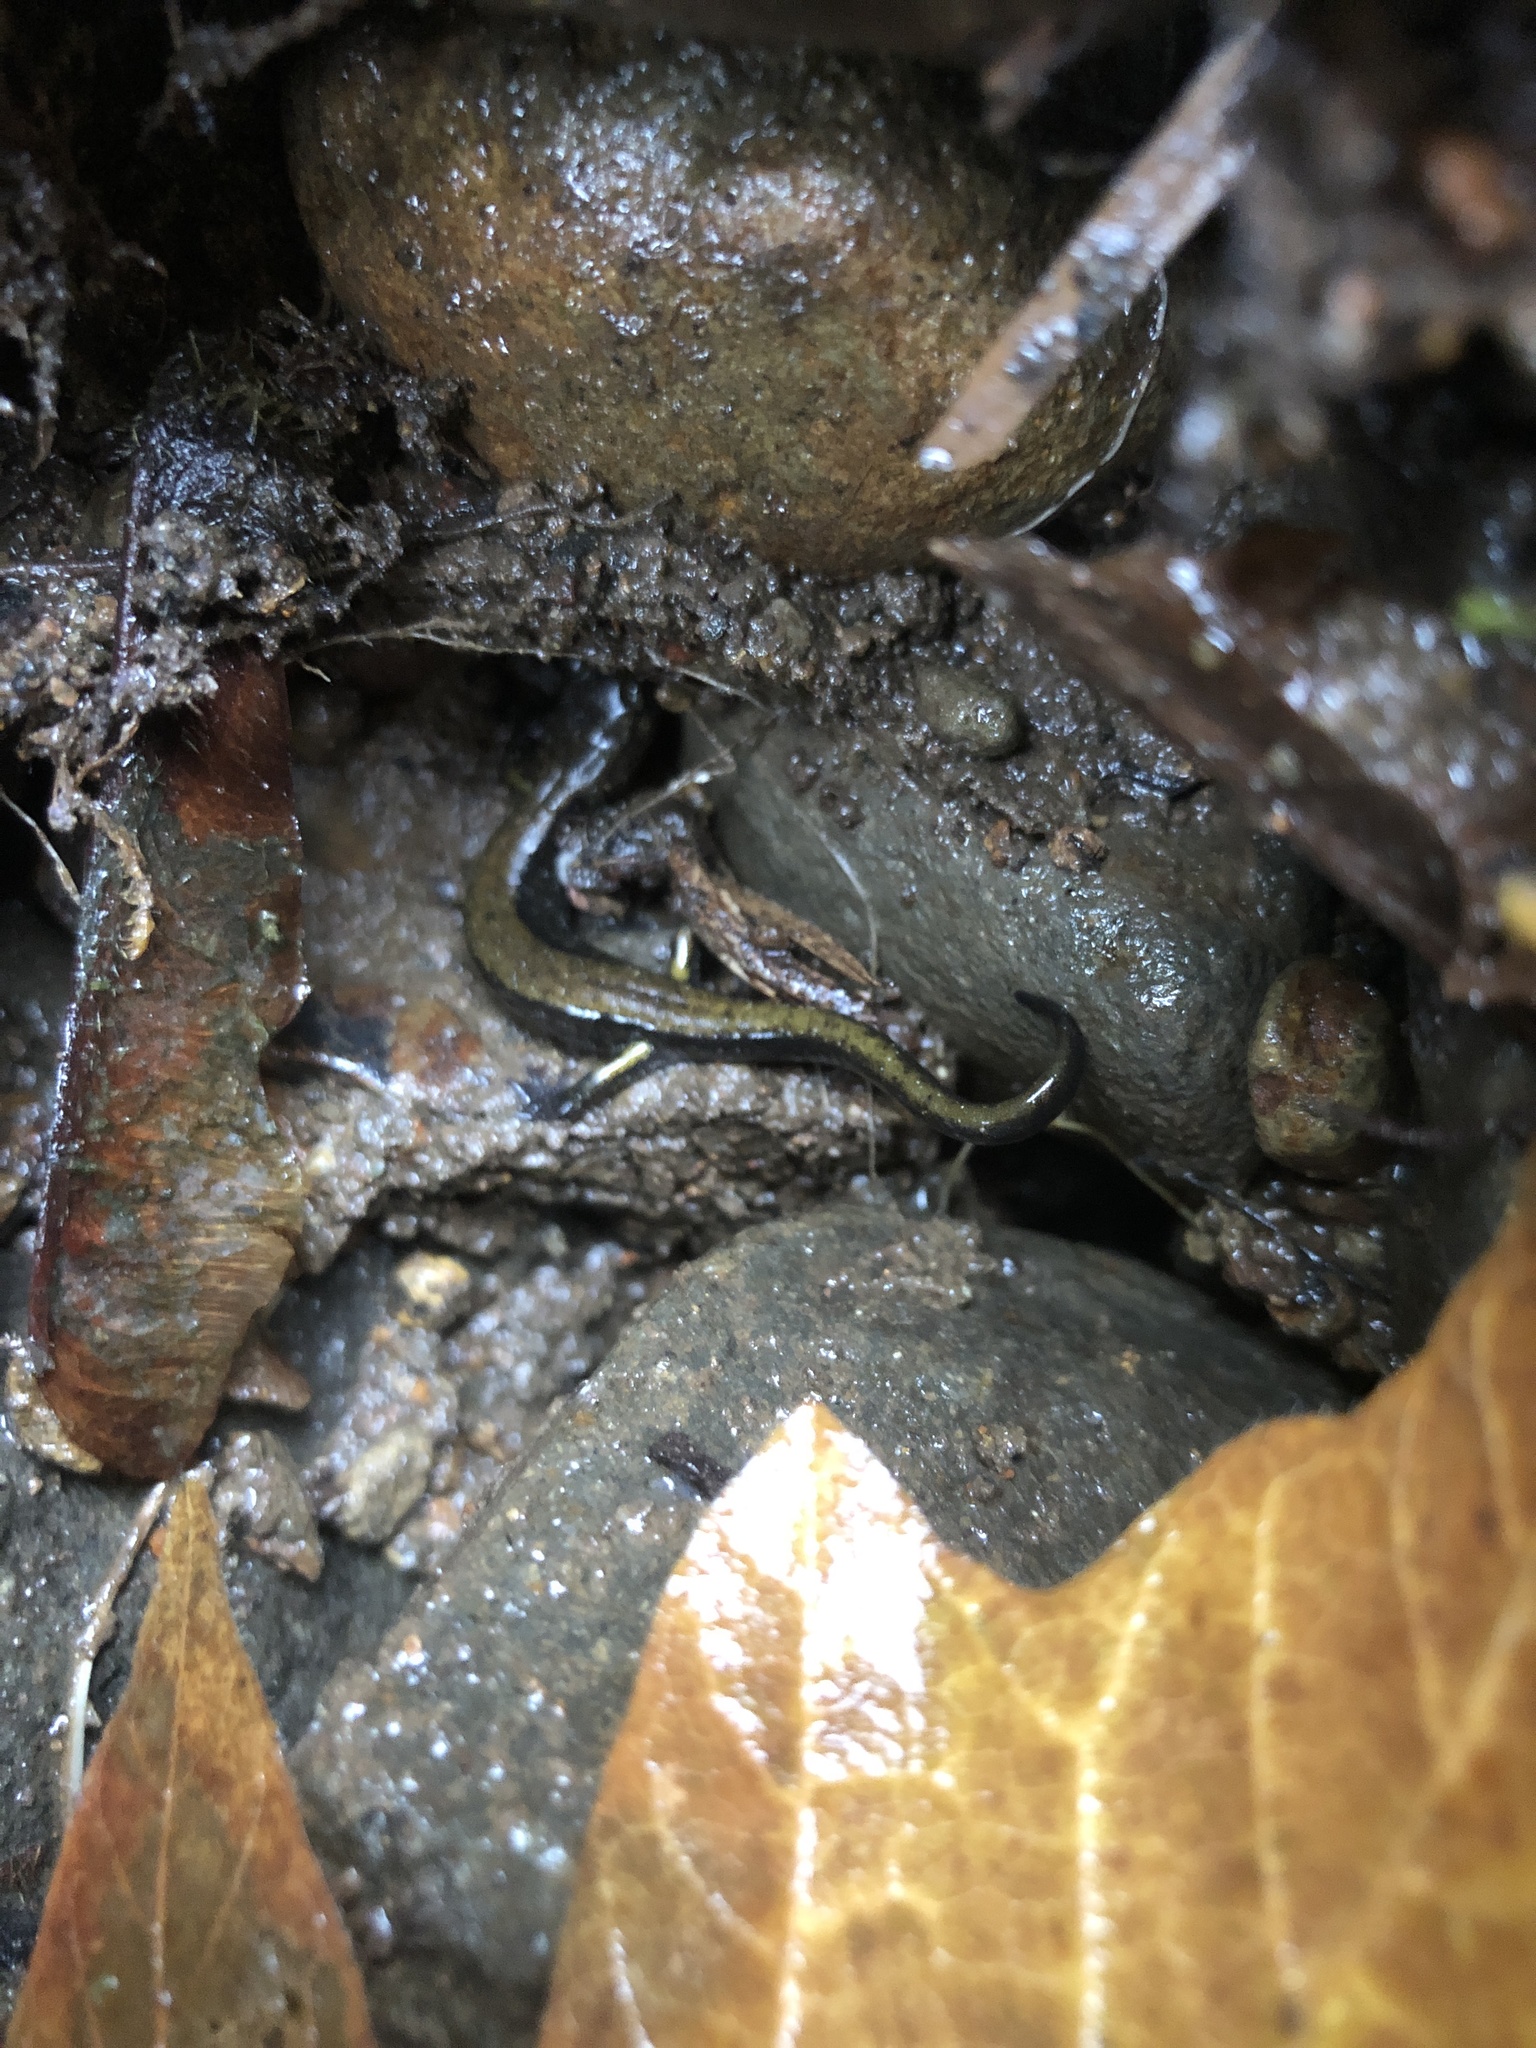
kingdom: Animalia
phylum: Chordata
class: Amphibia
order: Caudata
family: Plethodontidae
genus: Plethodon
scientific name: Plethodon dunni
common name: Dunn's salamander
